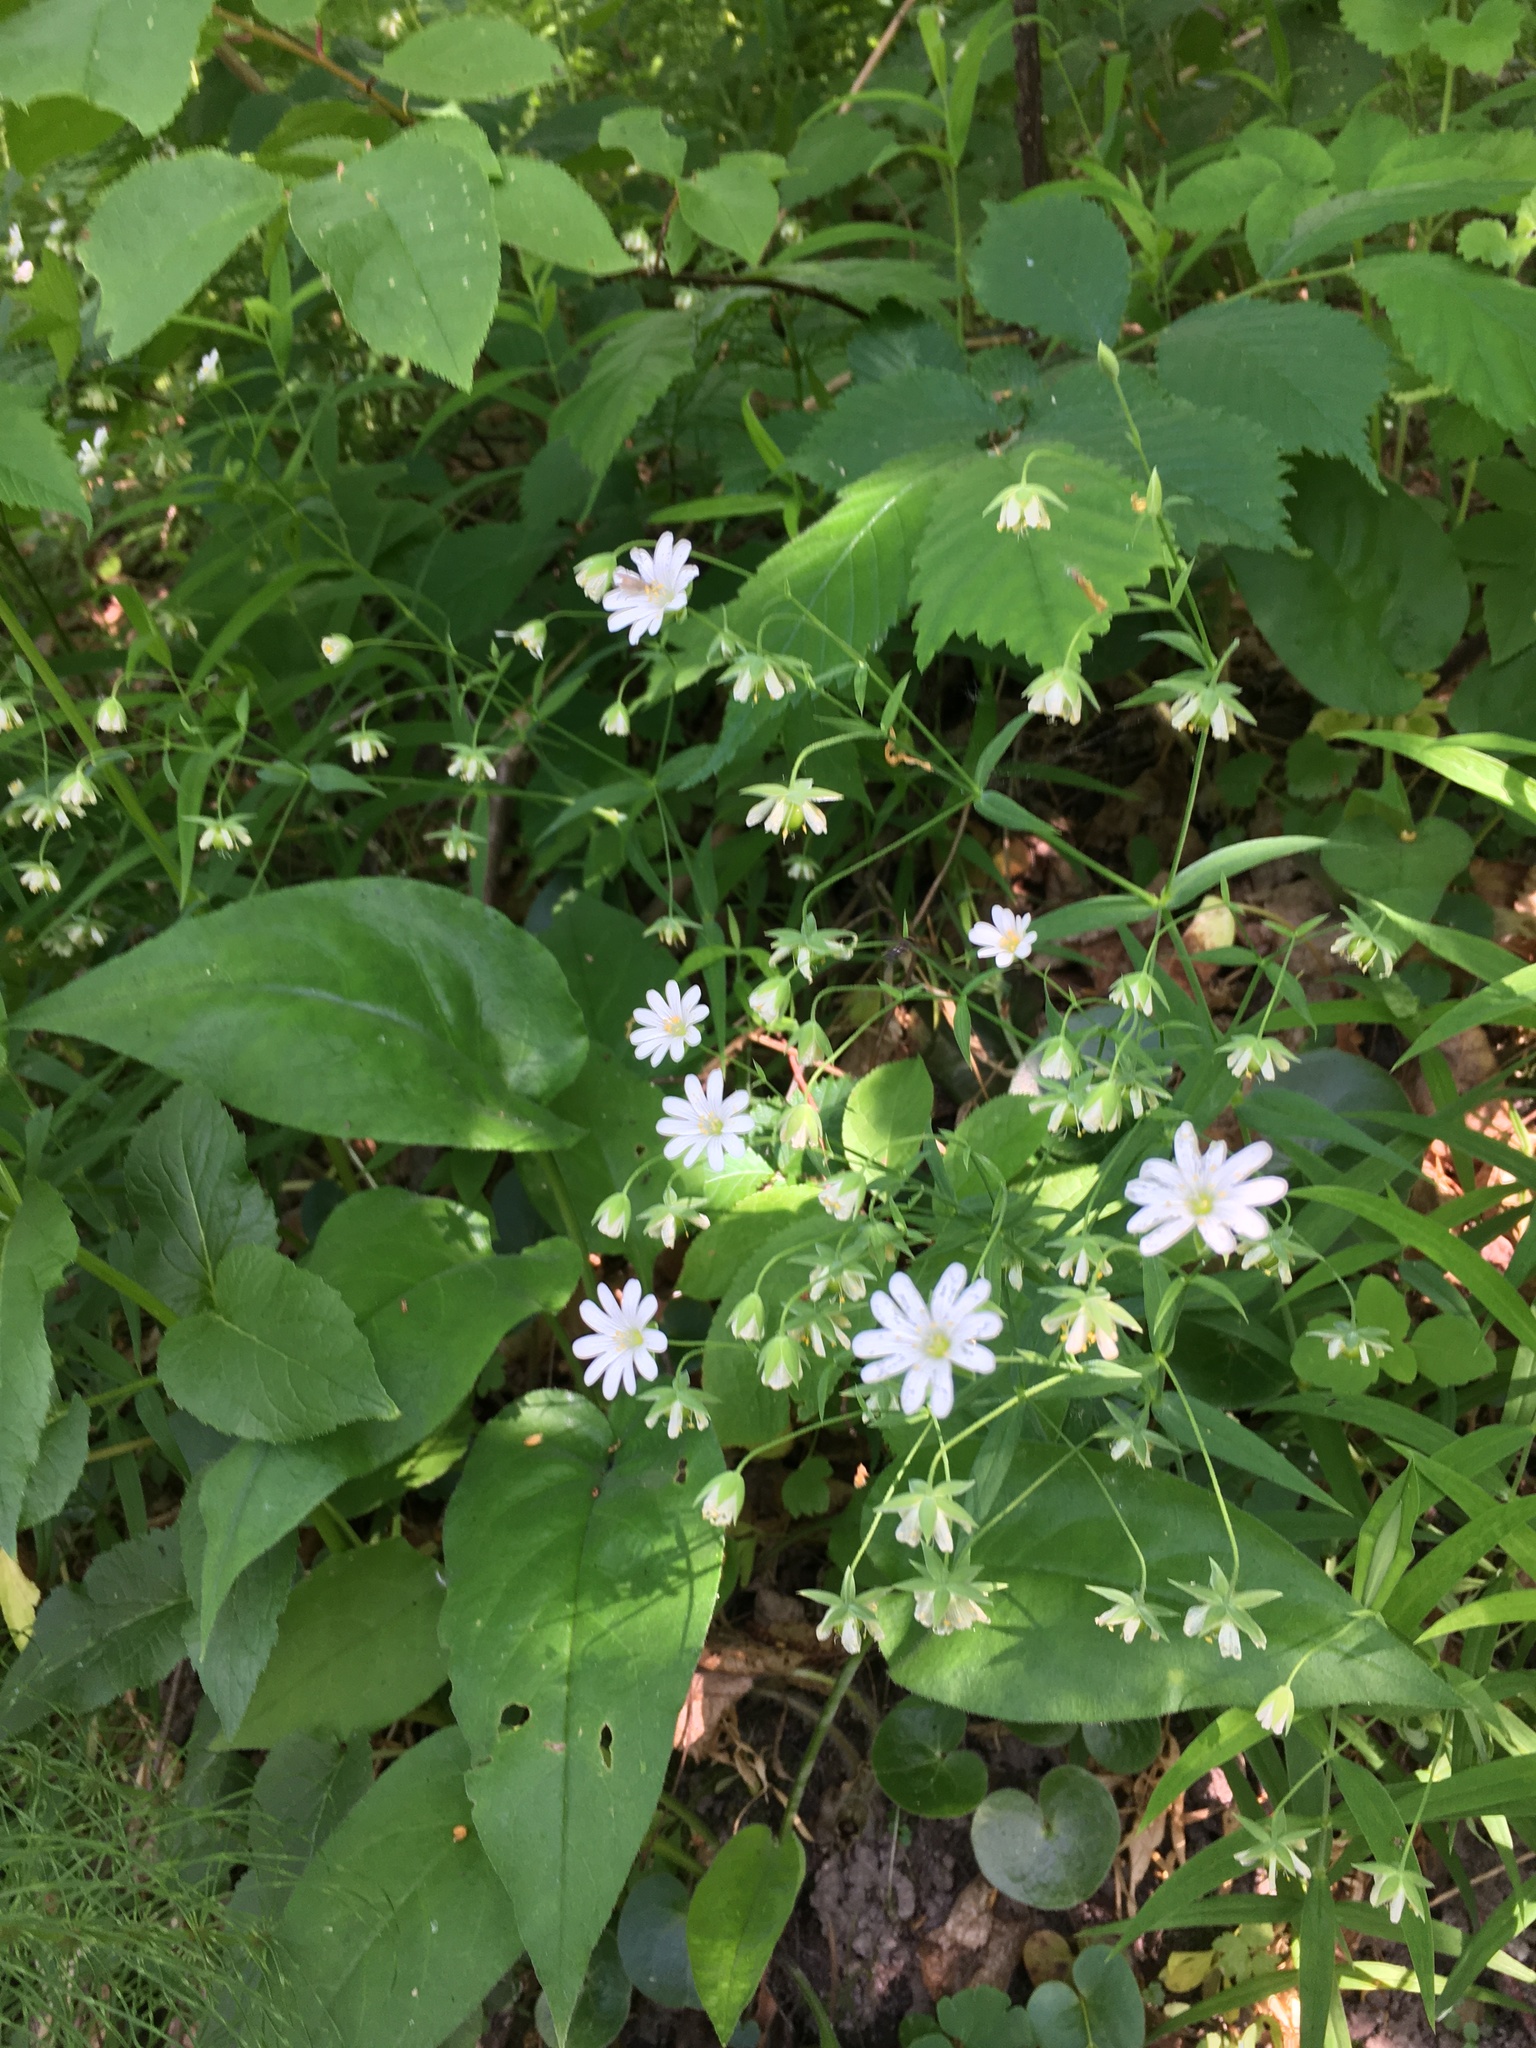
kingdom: Plantae
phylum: Tracheophyta
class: Magnoliopsida
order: Caryophyllales
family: Caryophyllaceae
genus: Rabelera
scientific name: Rabelera holostea
